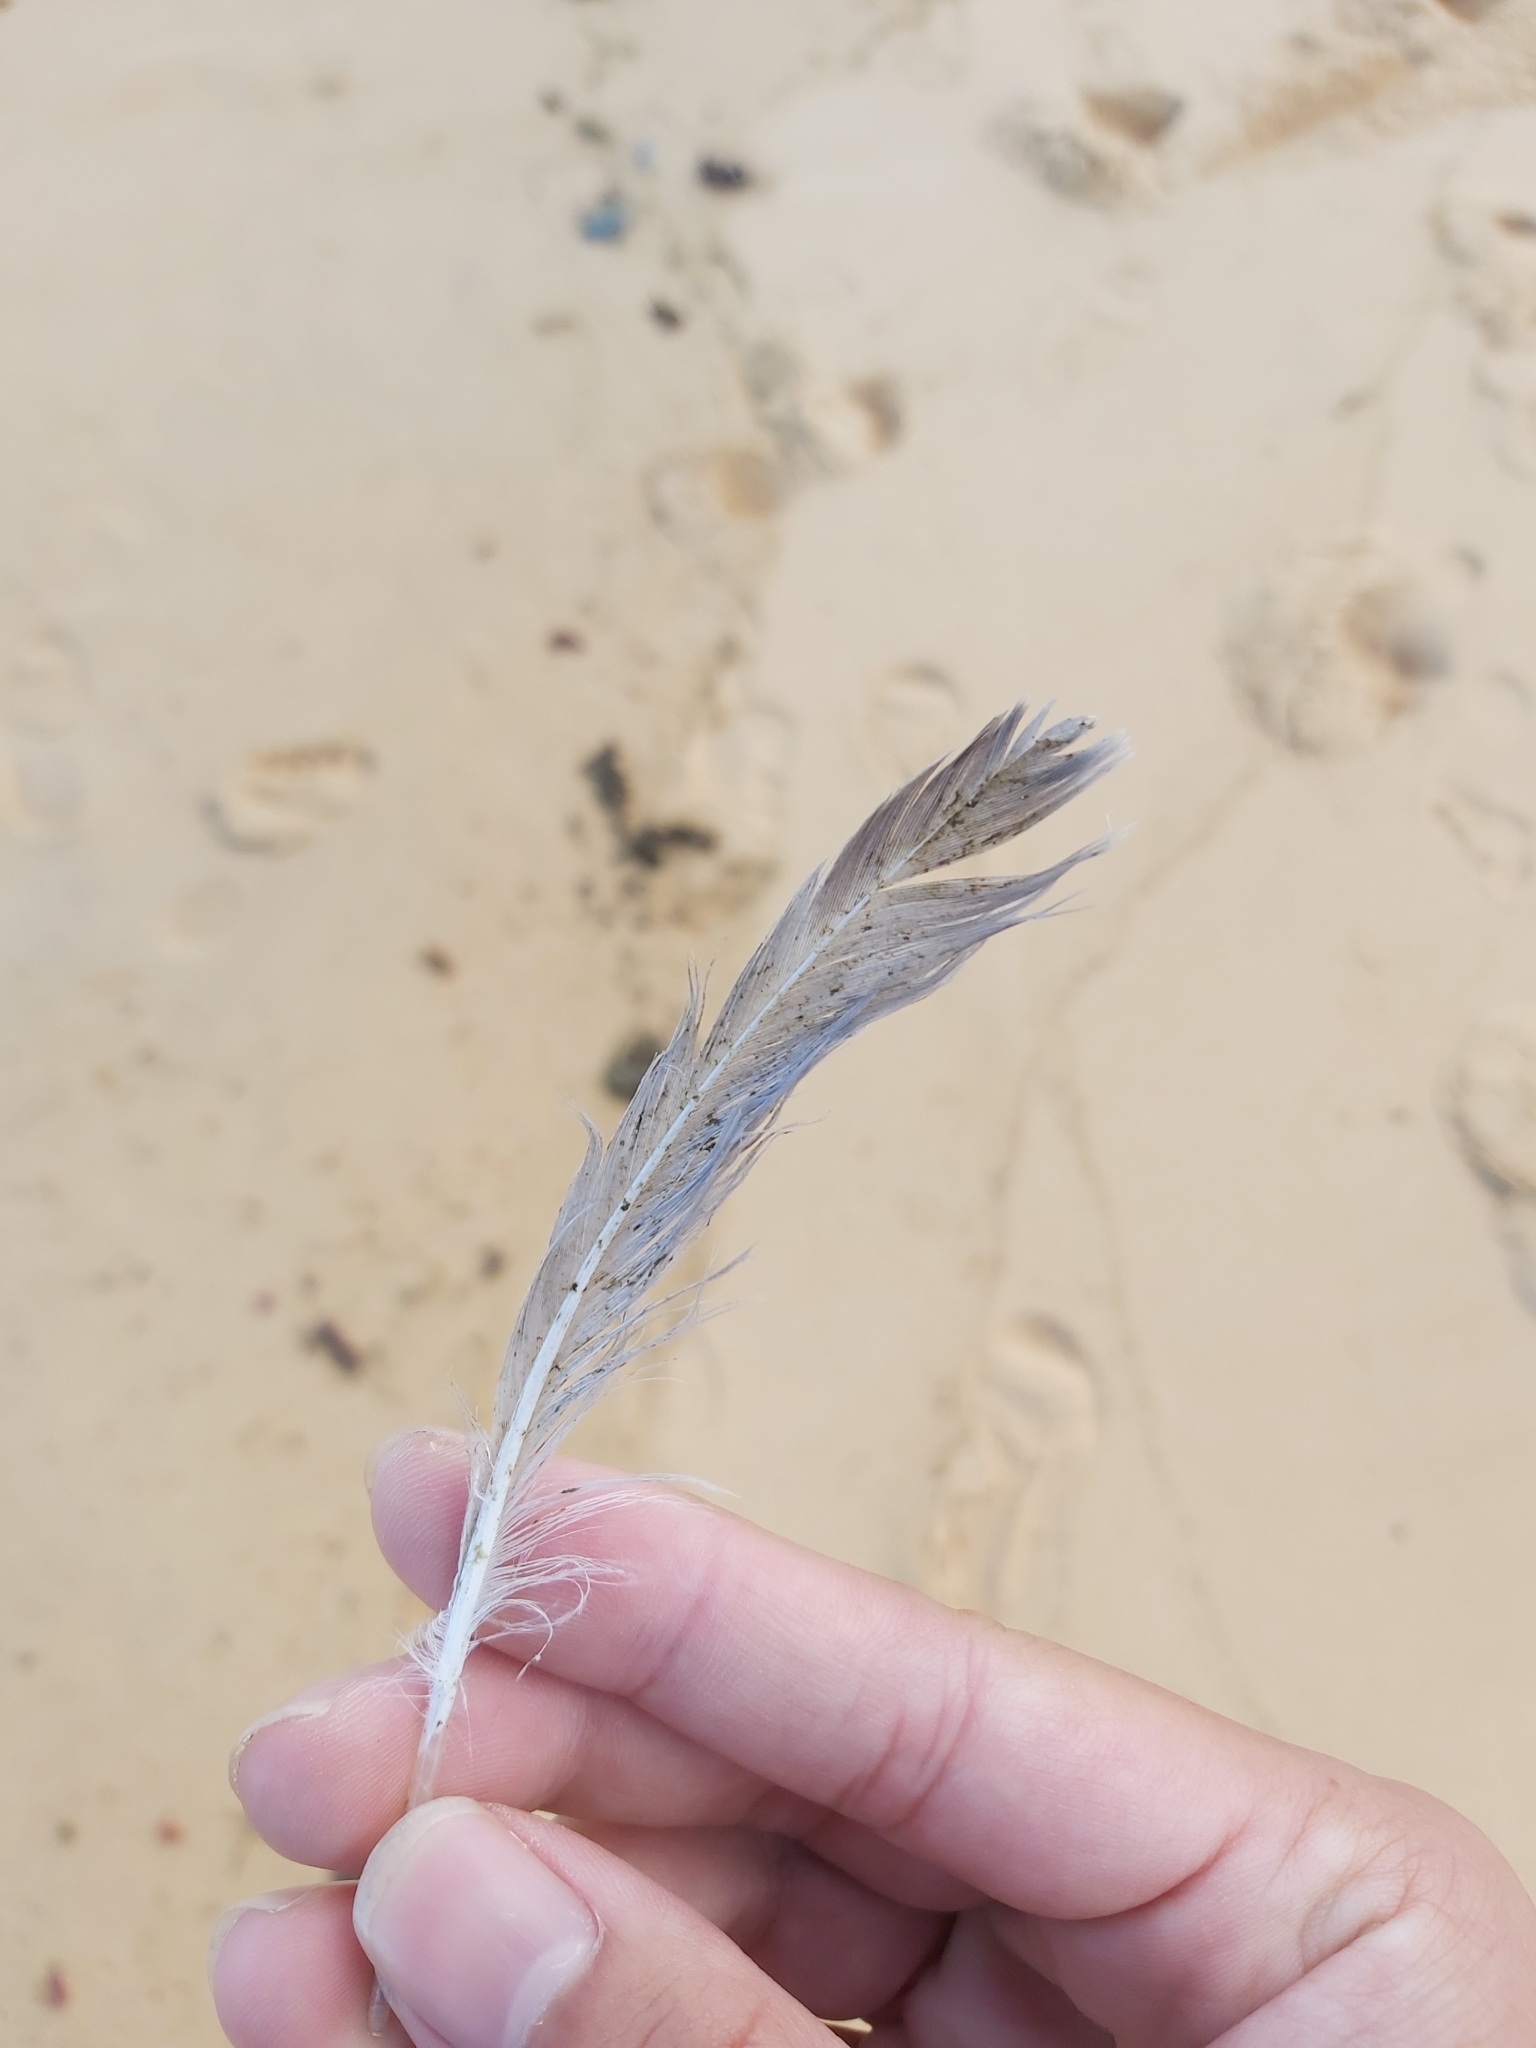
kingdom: Animalia
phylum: Chordata
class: Aves
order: Charadriiformes
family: Laridae
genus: Chroicocephalus
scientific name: Chroicocephalus novaehollandiae
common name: Silver gull
